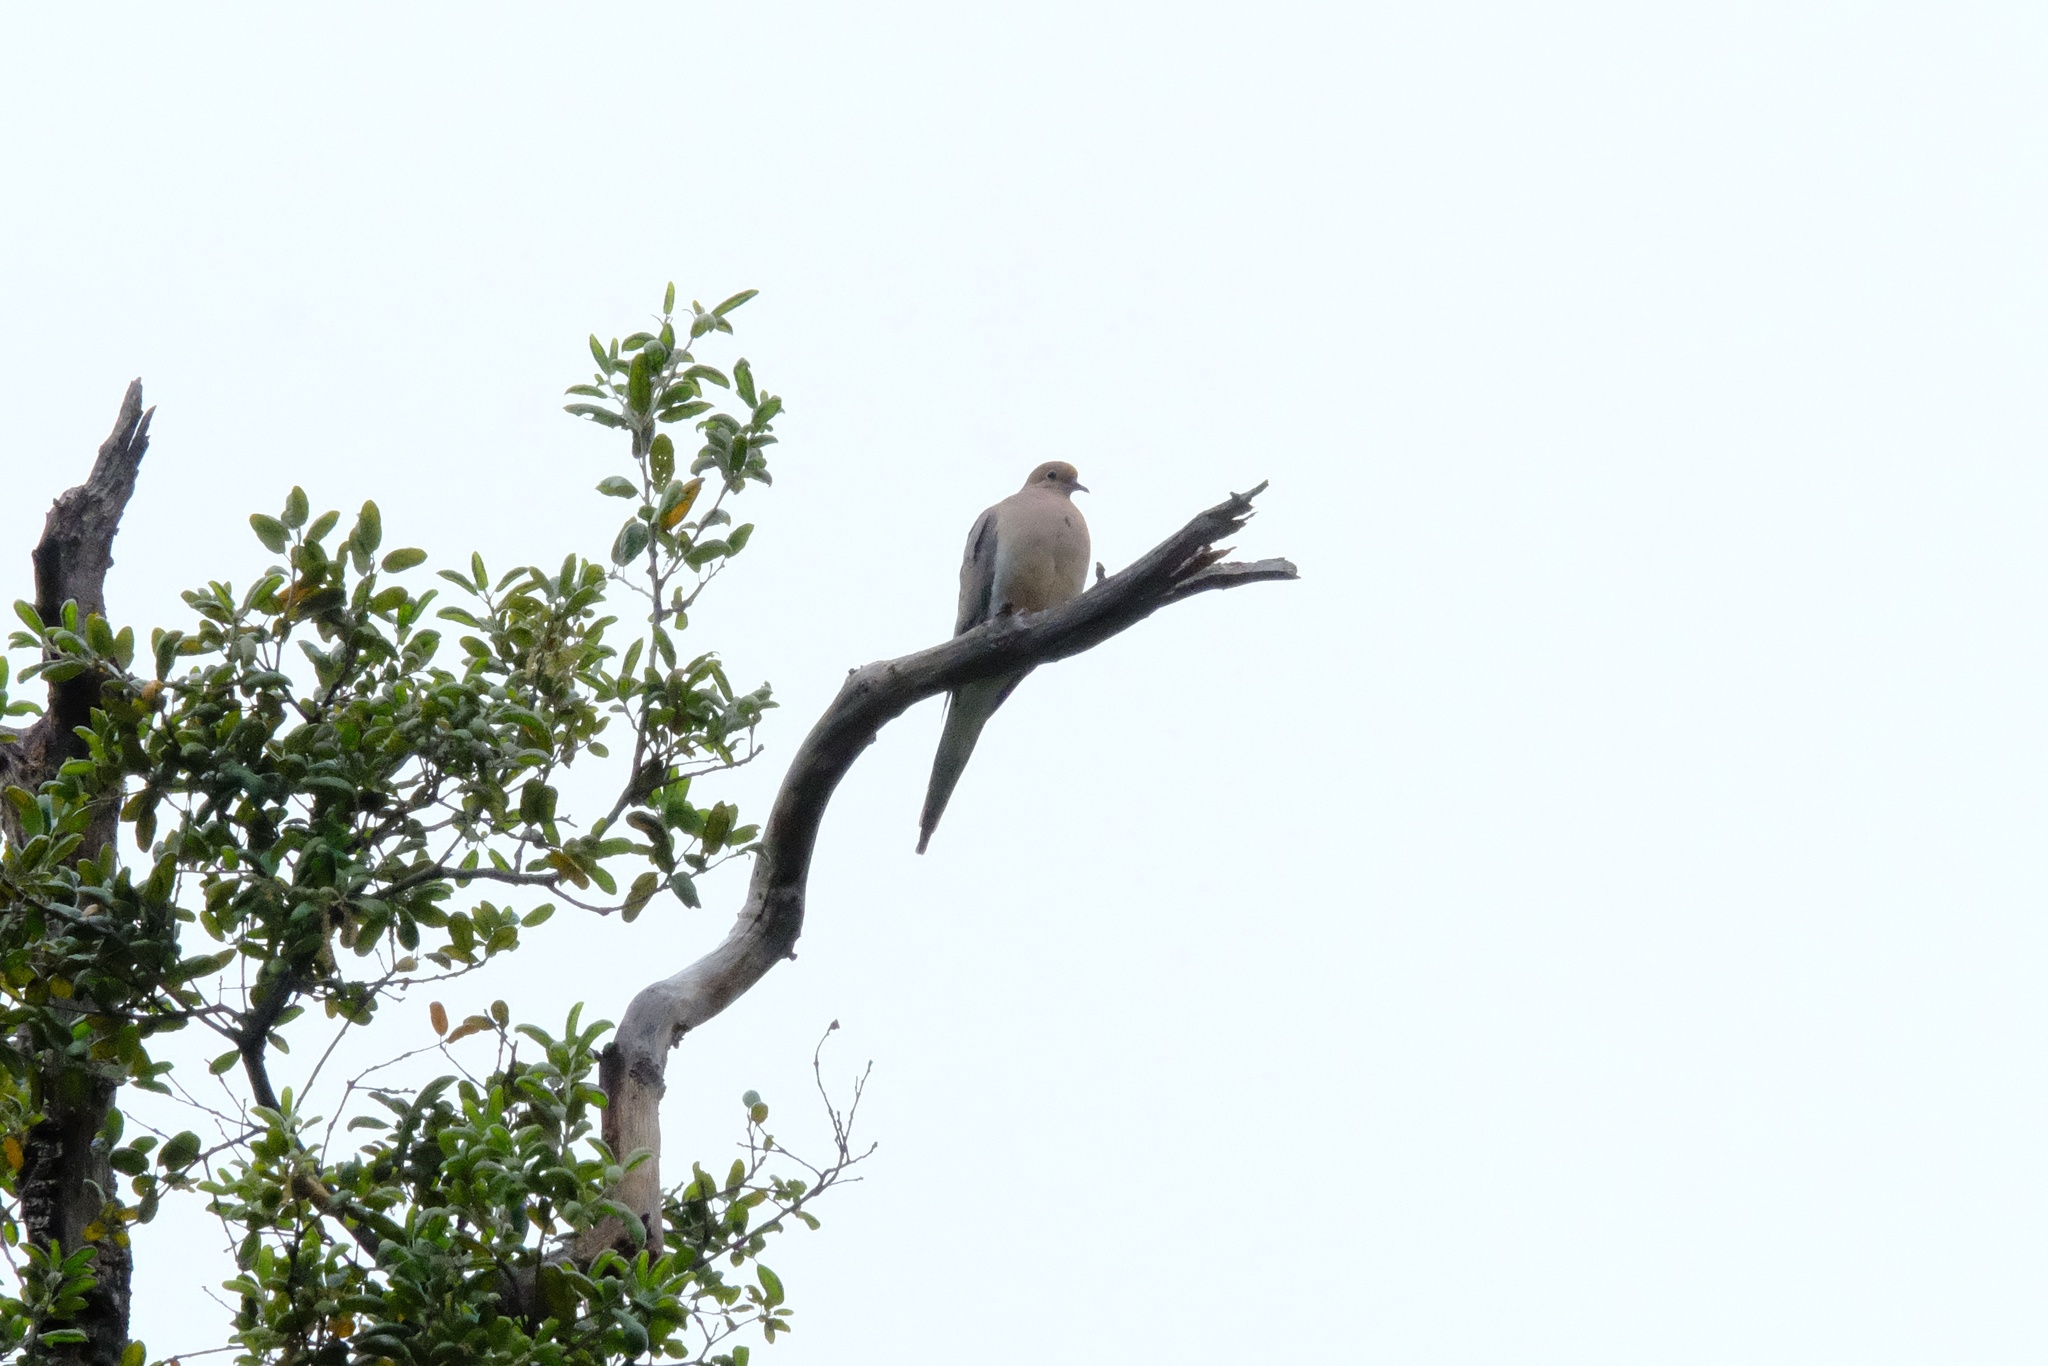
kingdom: Animalia
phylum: Chordata
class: Aves
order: Columbiformes
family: Columbidae
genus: Zenaida
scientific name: Zenaida macroura
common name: Mourning dove
